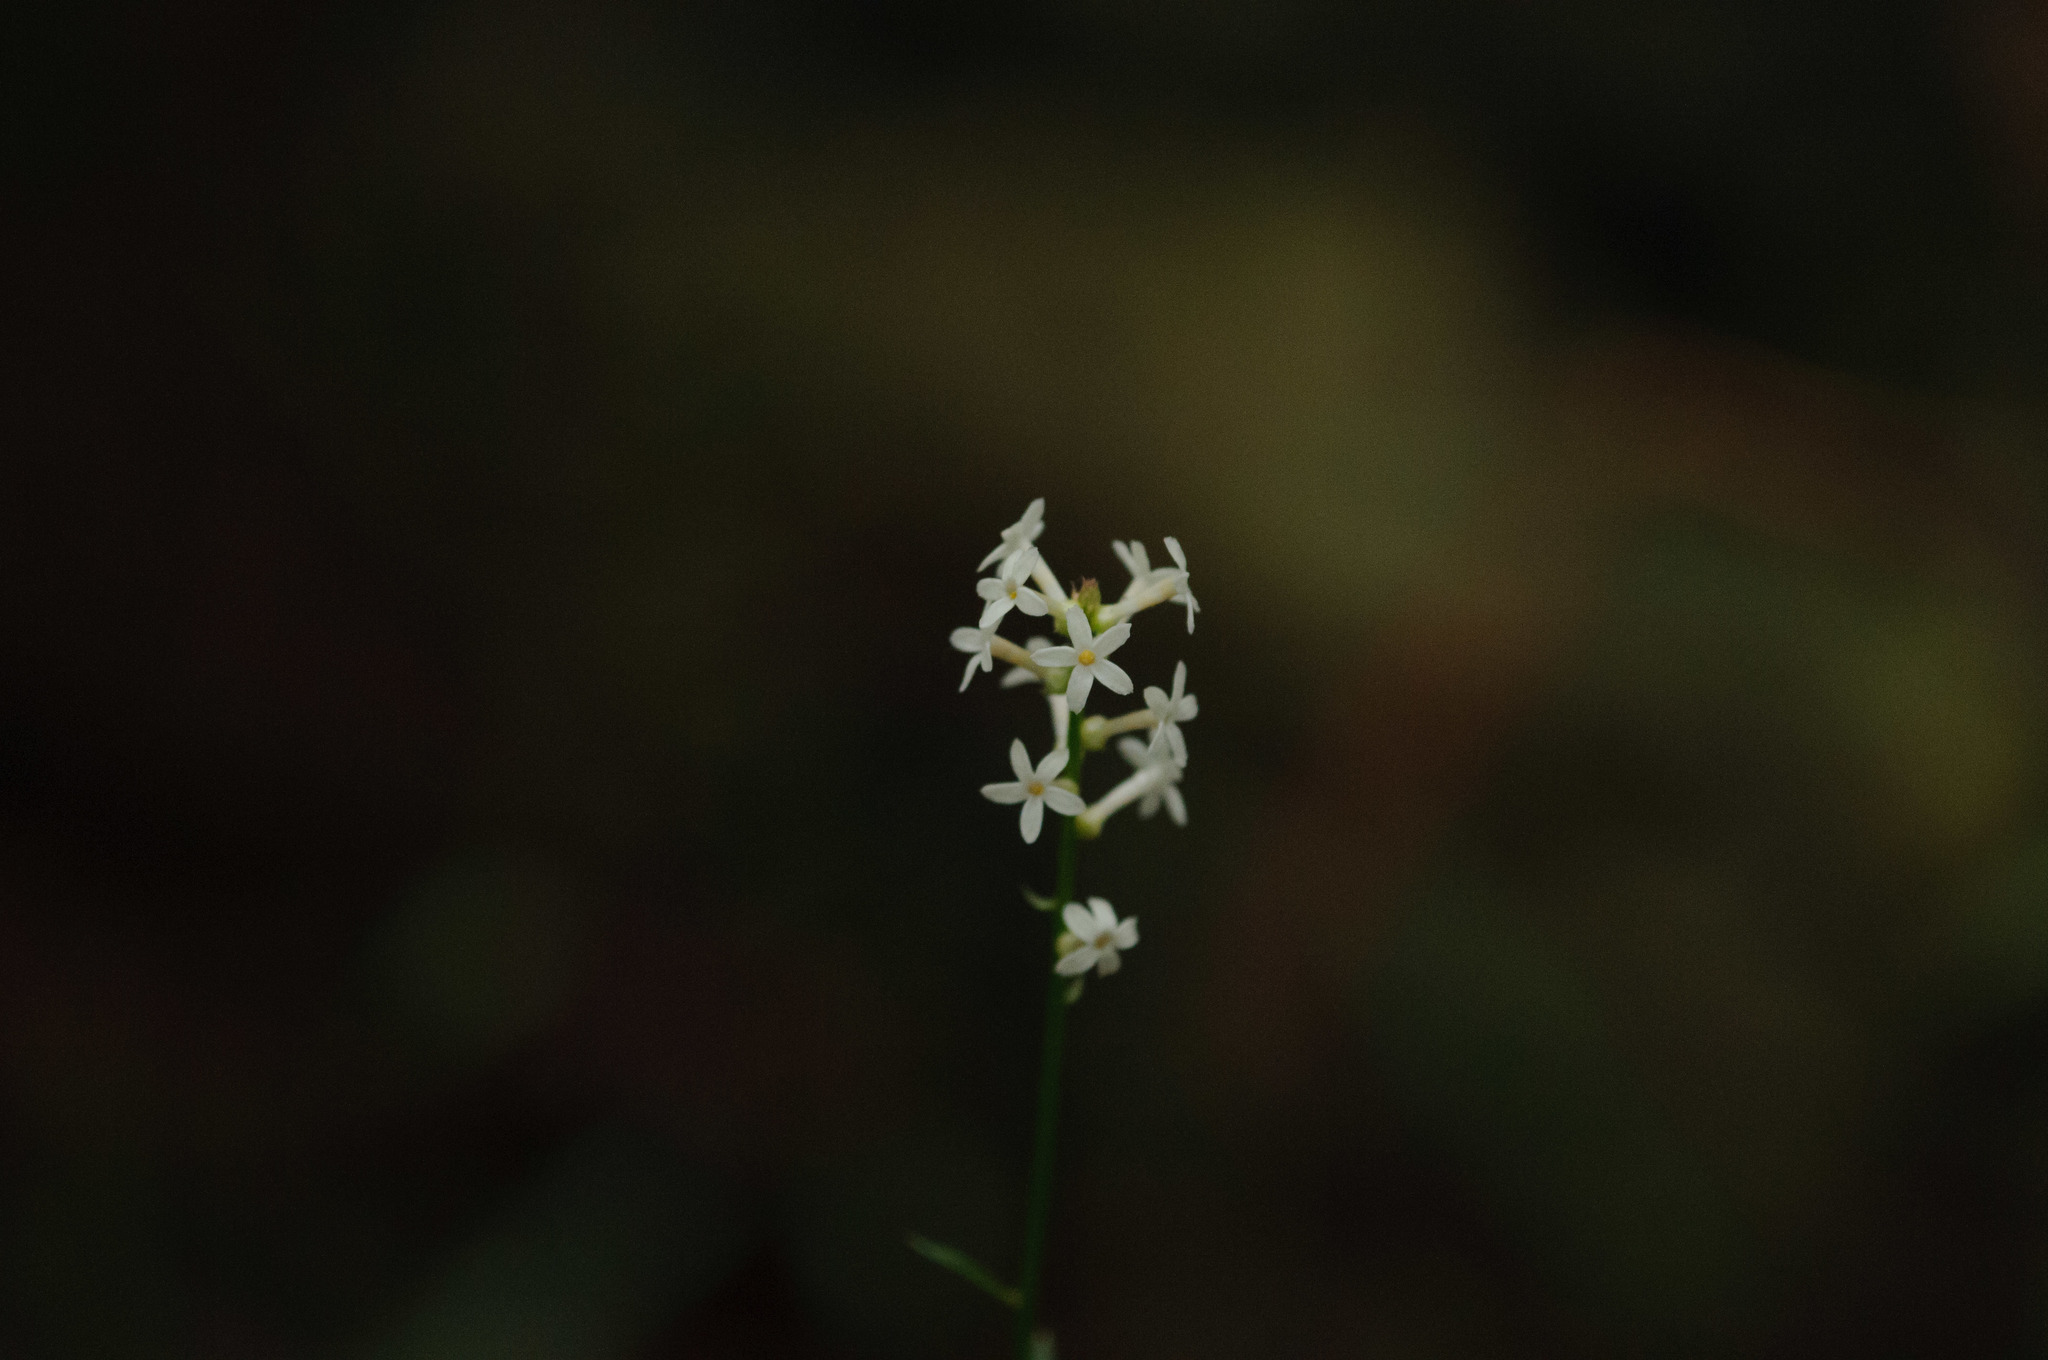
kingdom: Plantae
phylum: Tracheophyta
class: Magnoliopsida
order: Celastrales
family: Celastraceae
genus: Stackhousia
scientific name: Stackhousia monogyna
